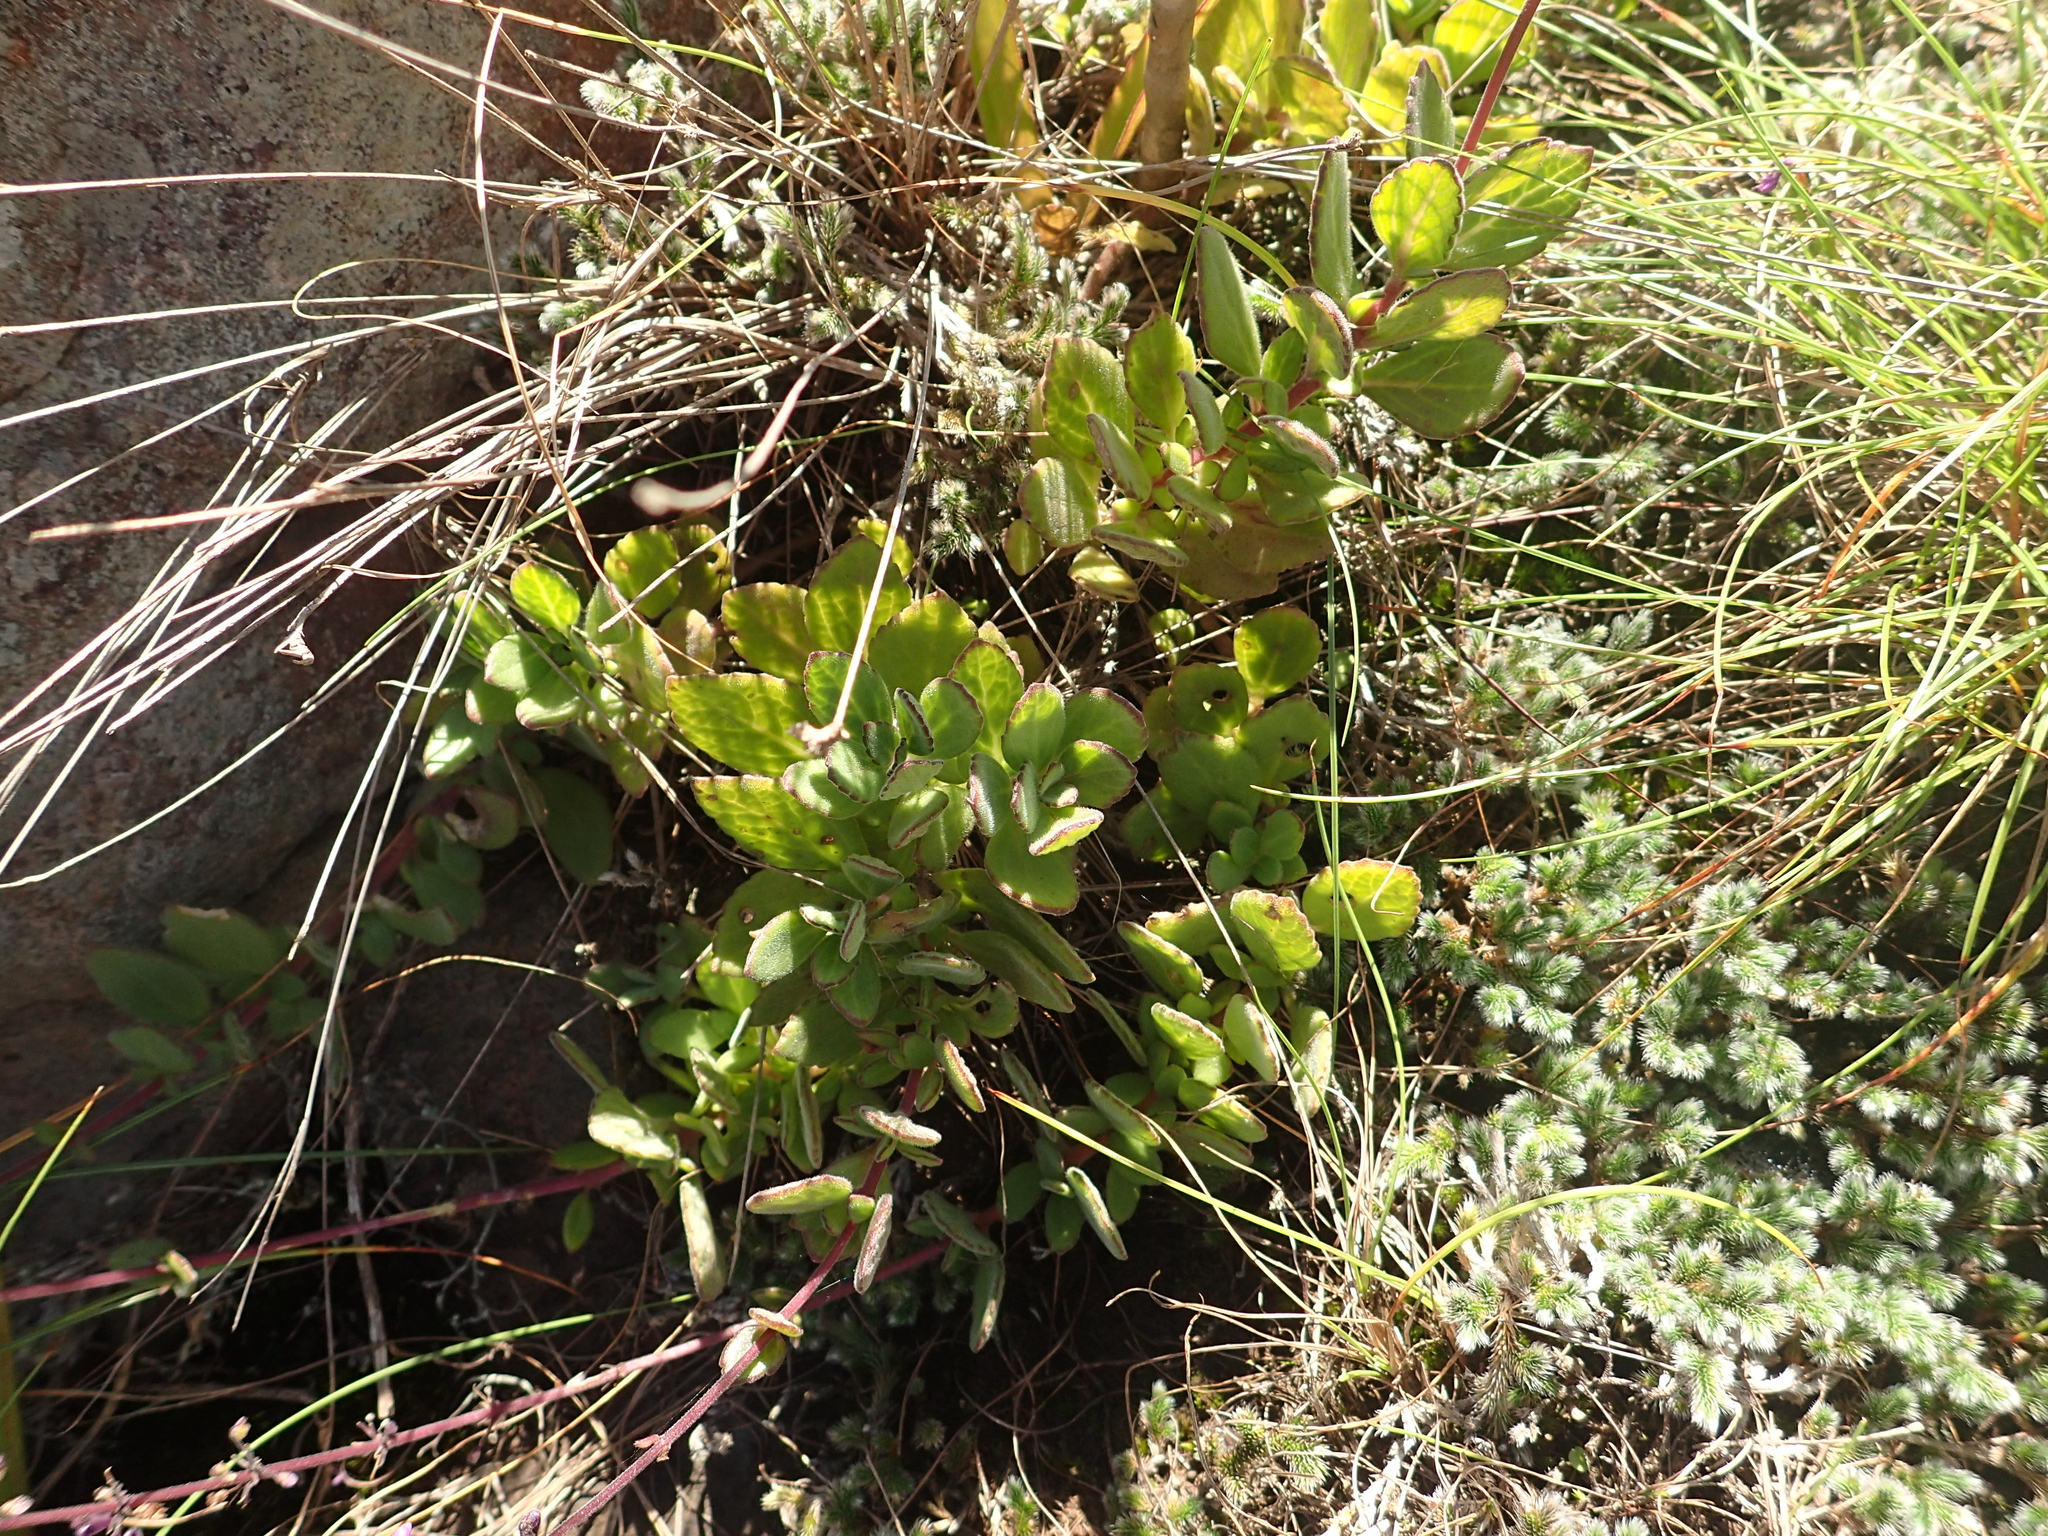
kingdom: Plantae
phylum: Tracheophyta
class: Magnoliopsida
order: Lamiales
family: Lamiaceae
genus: Coleus
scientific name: Coleus hadiensis
